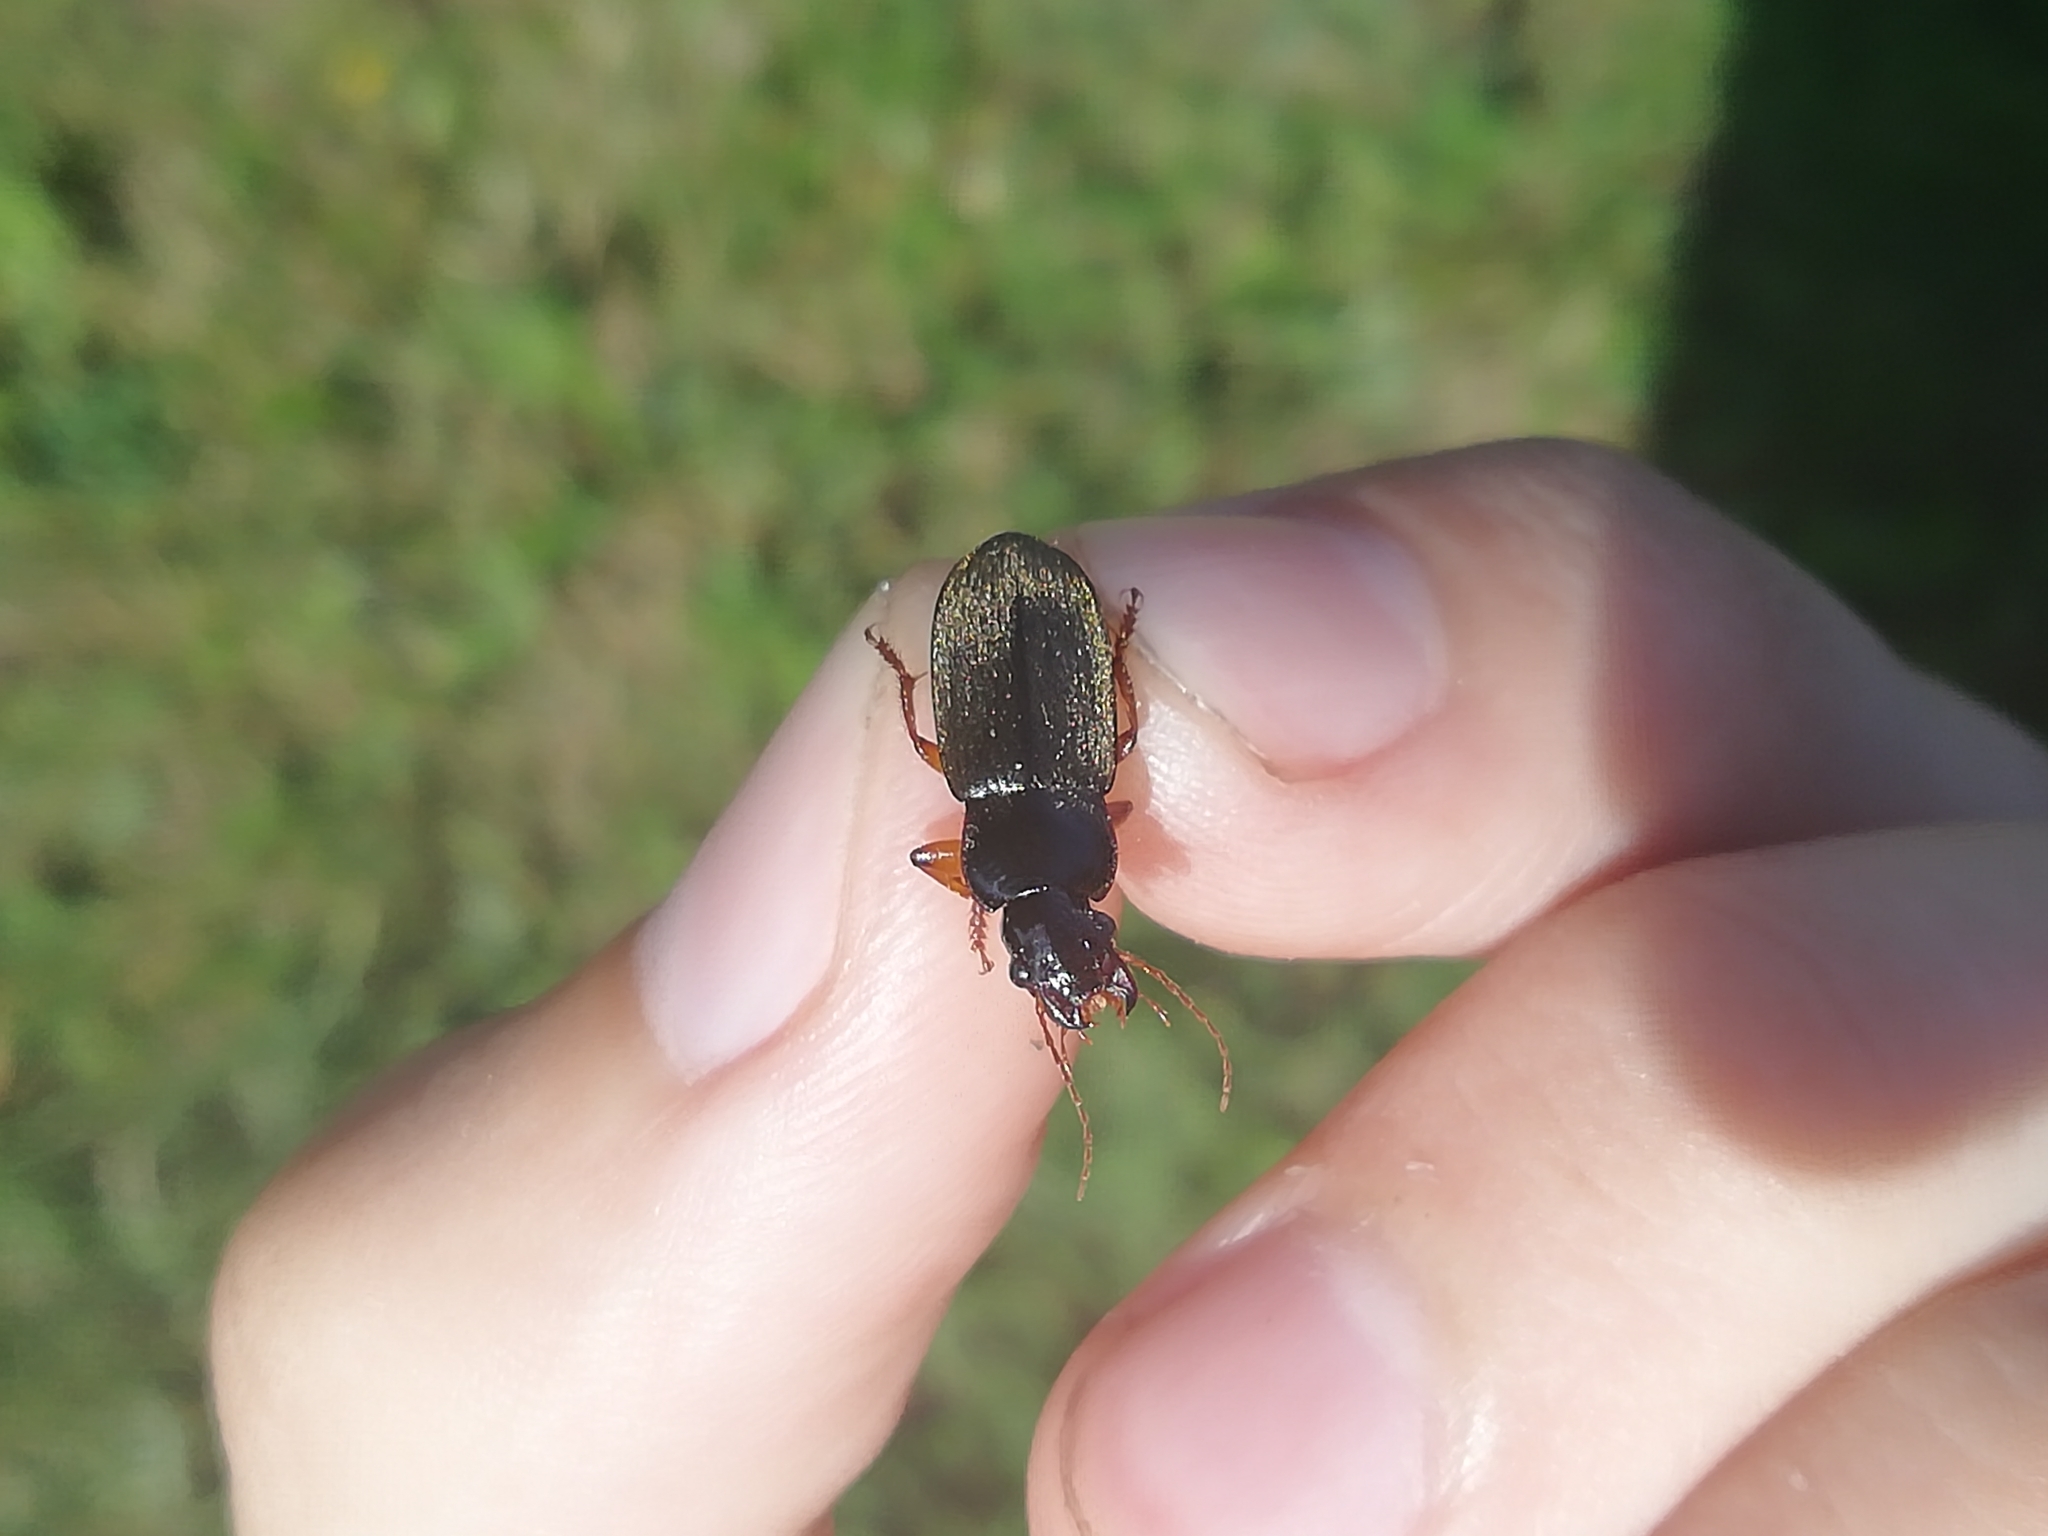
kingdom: Animalia
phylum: Arthropoda
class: Insecta
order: Coleoptera
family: Carabidae
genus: Harpalus
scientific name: Harpalus rufipes
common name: Strawberry harp ground beetle
